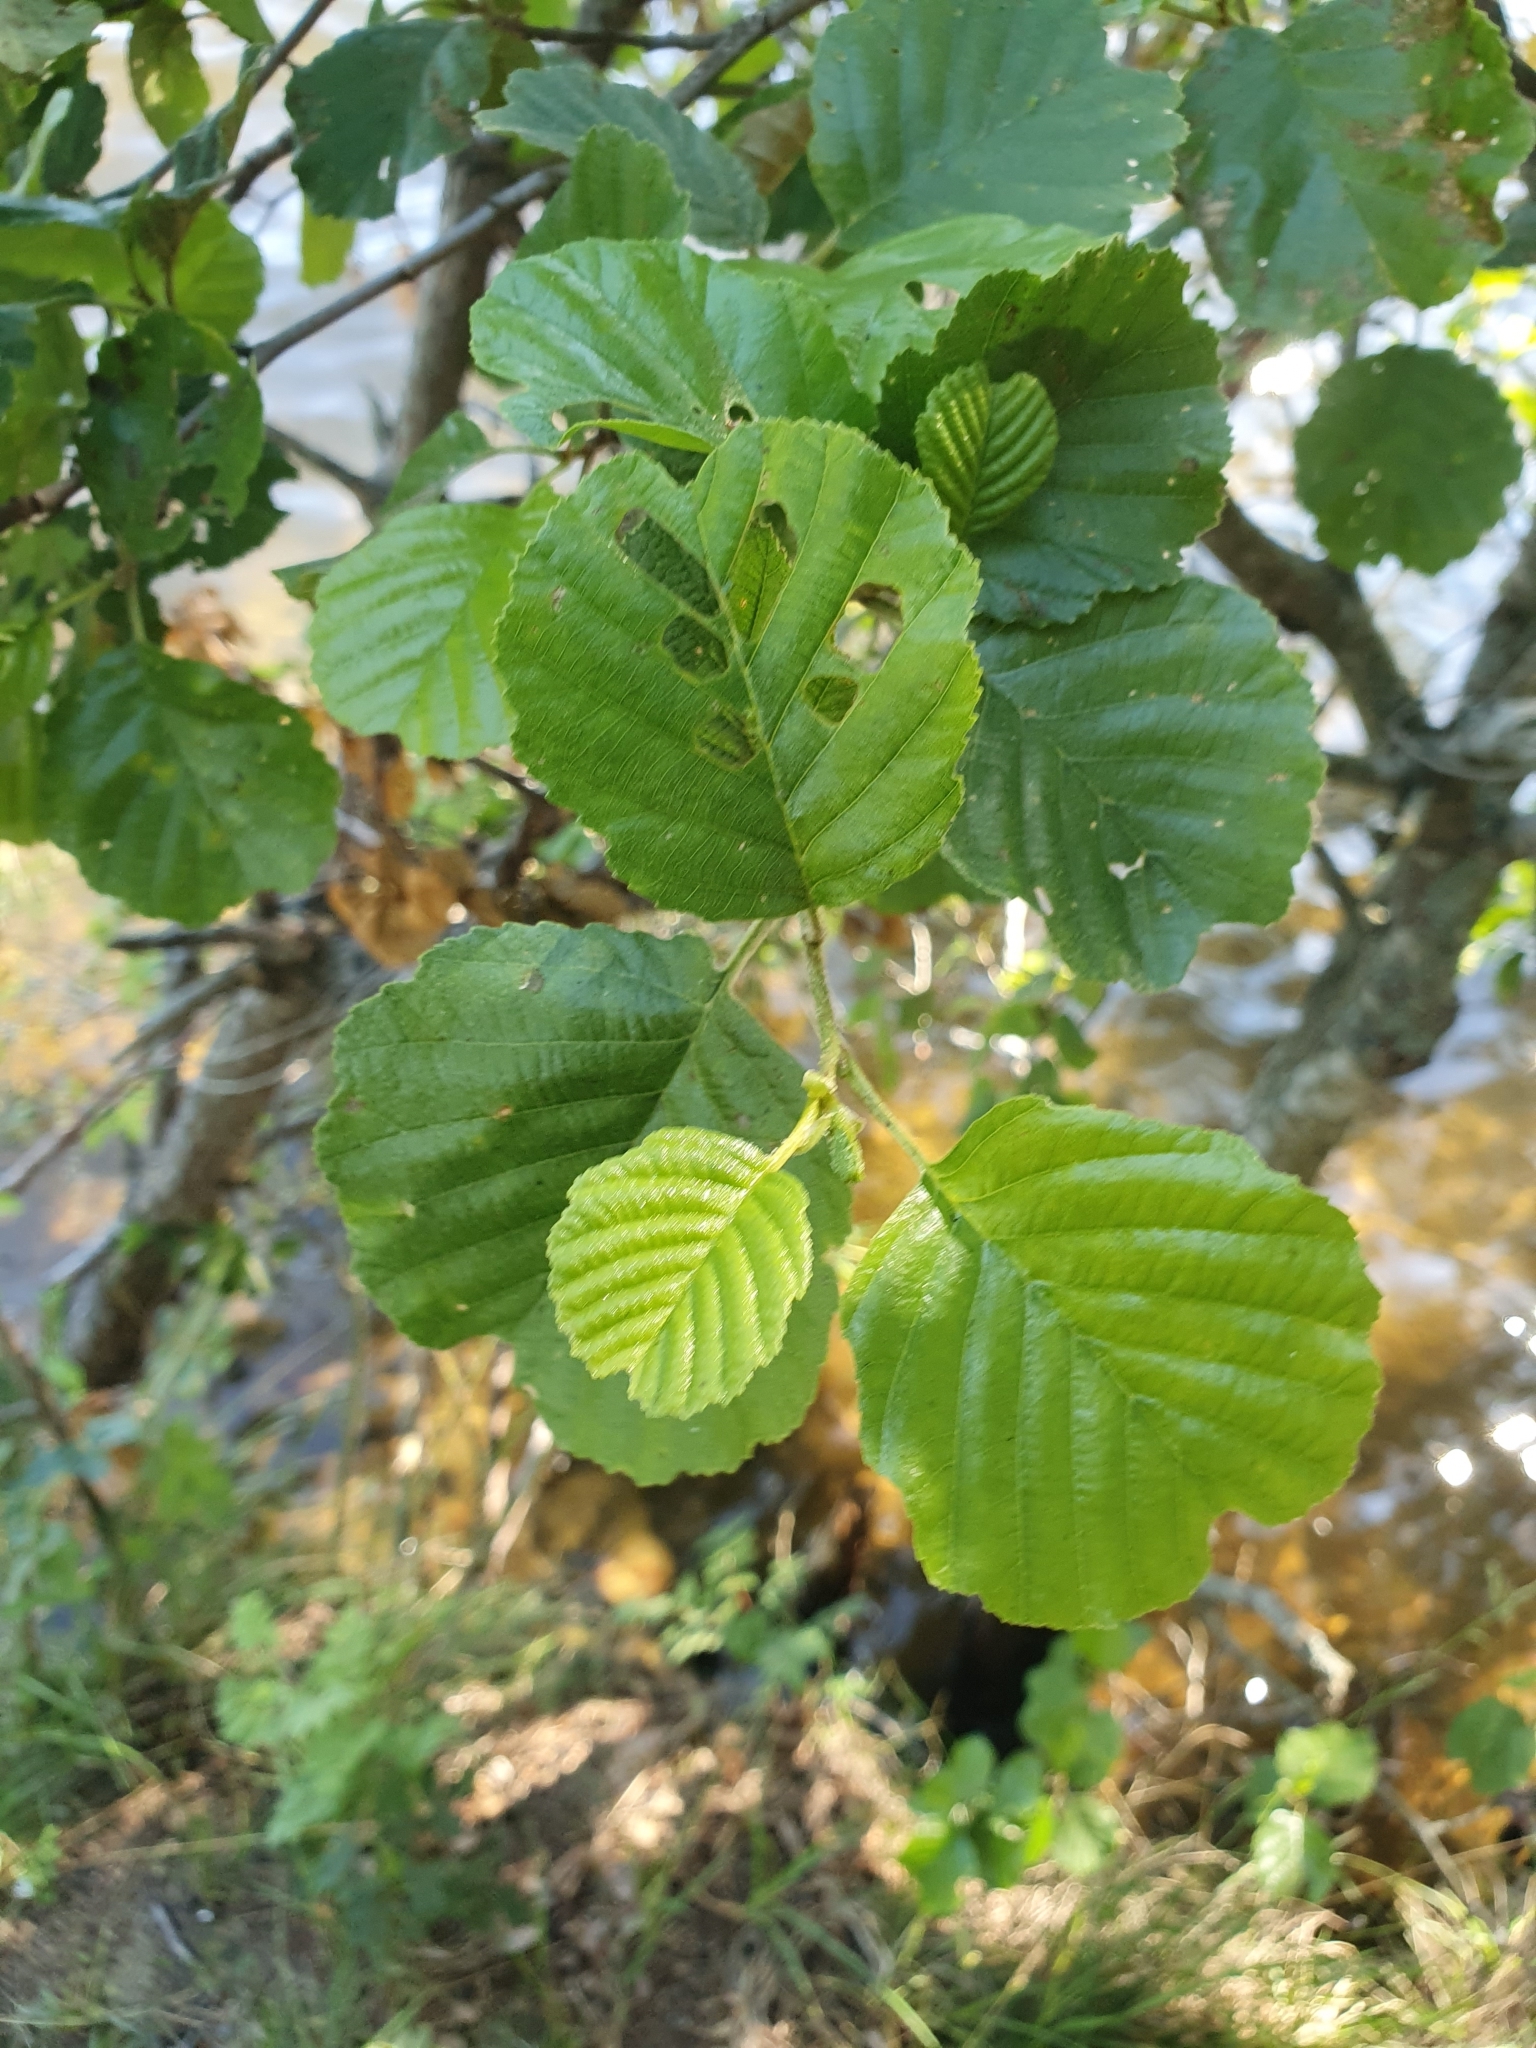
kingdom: Plantae
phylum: Tracheophyta
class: Magnoliopsida
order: Fagales
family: Betulaceae
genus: Alnus
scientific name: Alnus glutinosa
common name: Black alder
